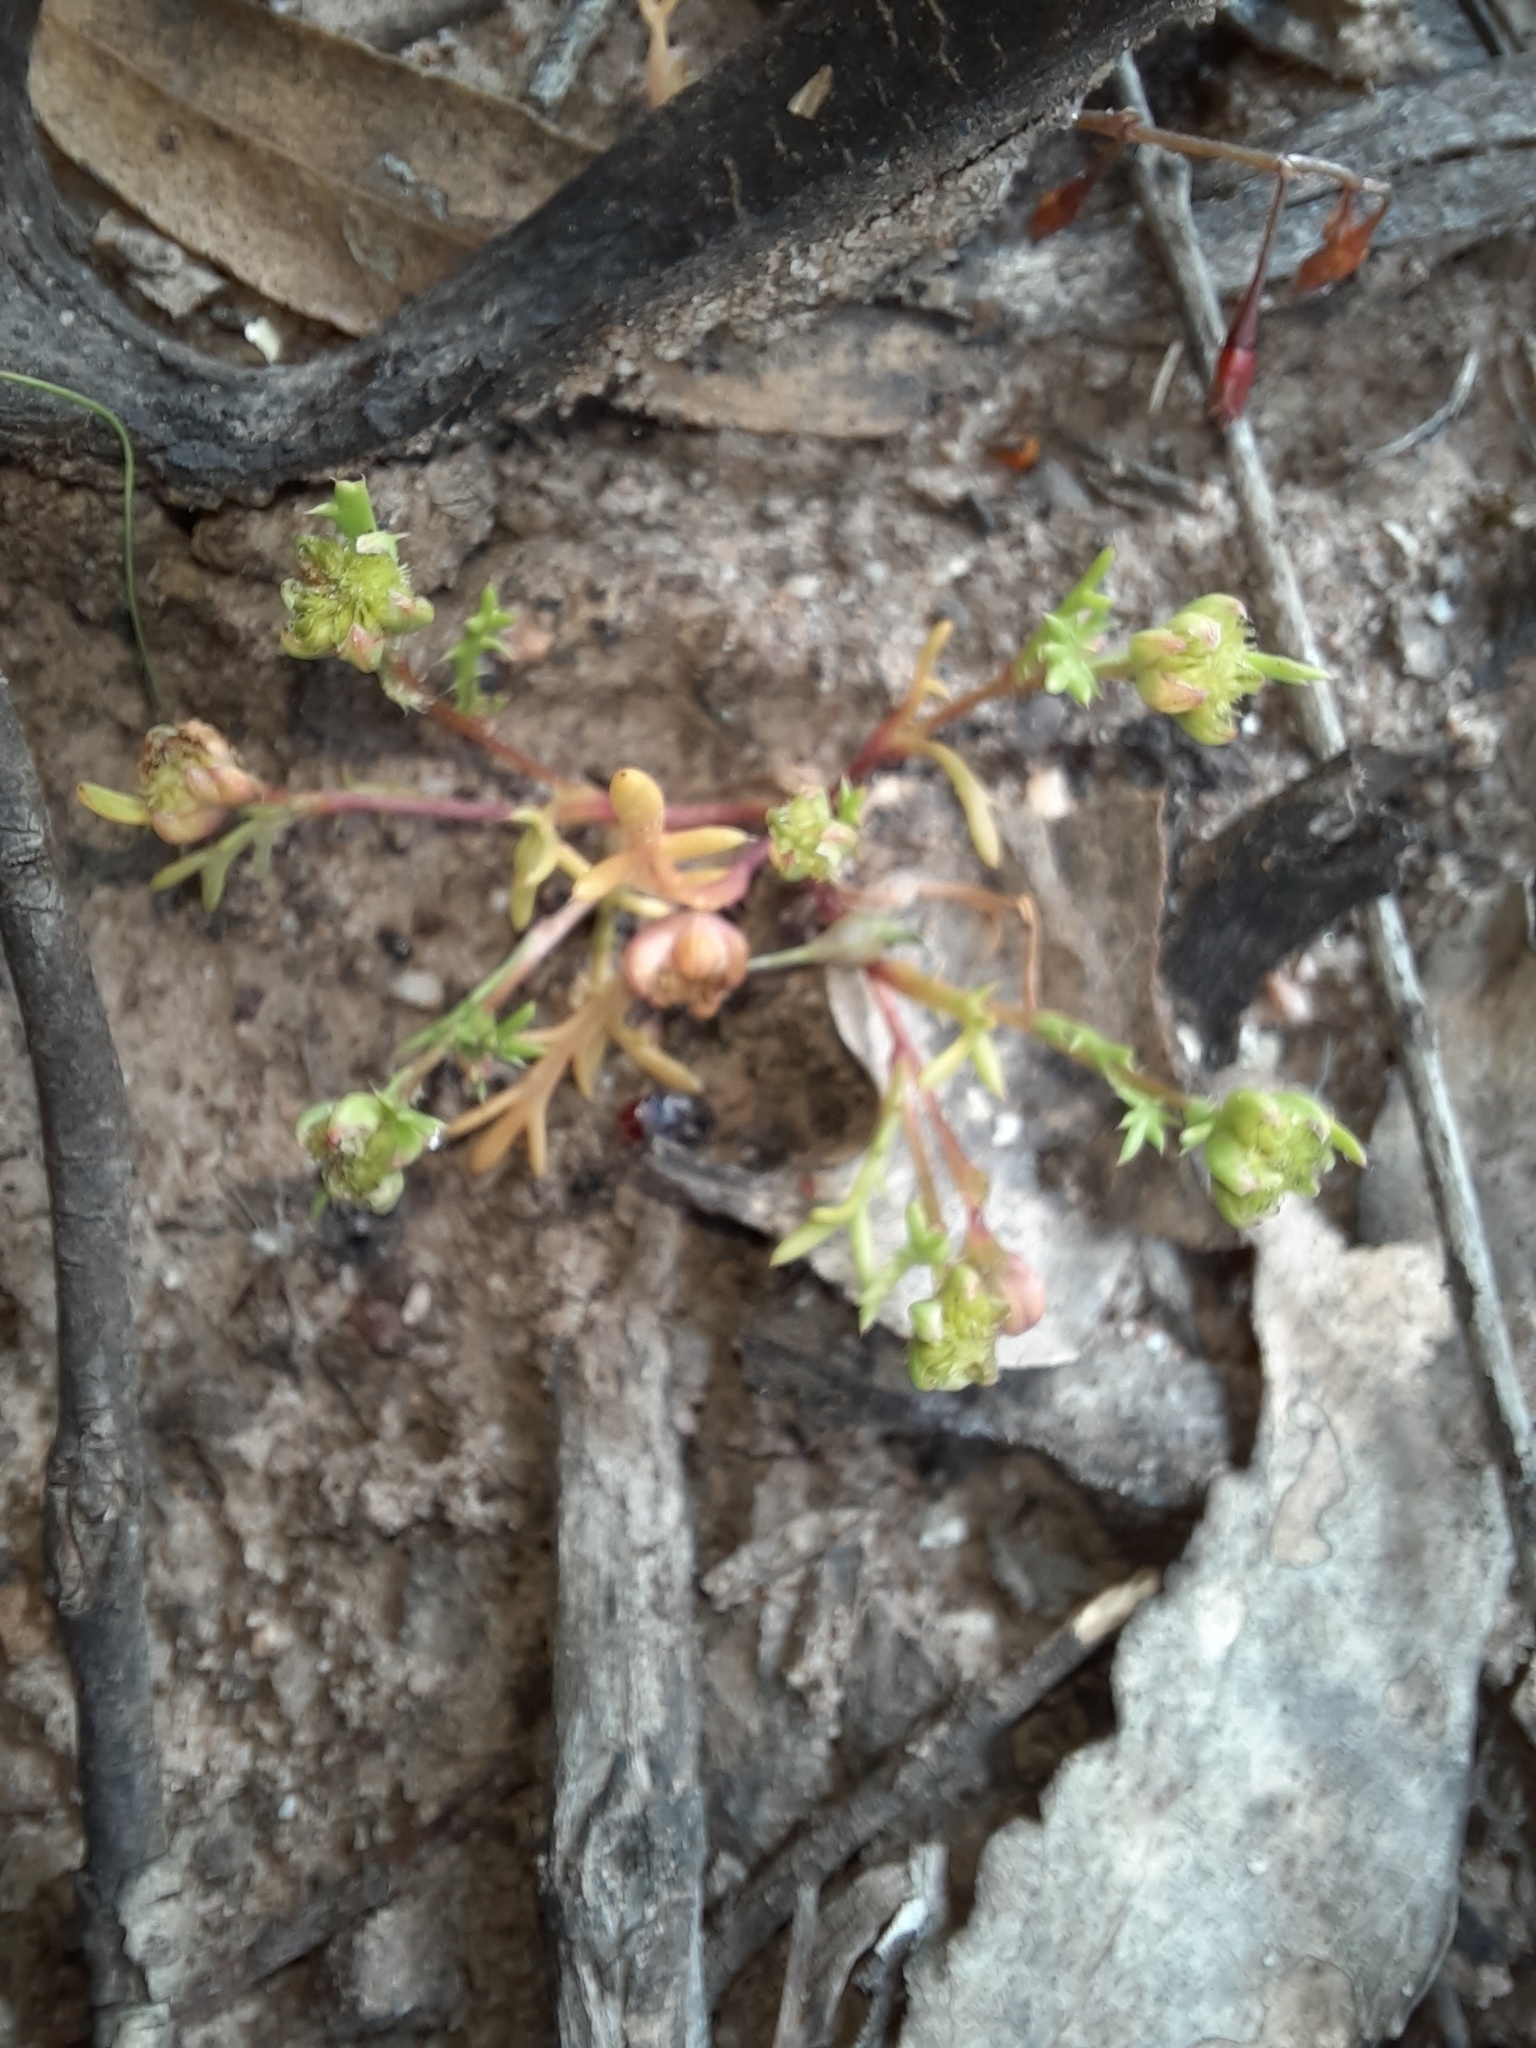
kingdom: Plantae
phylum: Tracheophyta
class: Magnoliopsida
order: Asterales
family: Asteraceae
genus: Cotula
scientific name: Cotula bipinnata
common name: Ferny buttonweed
